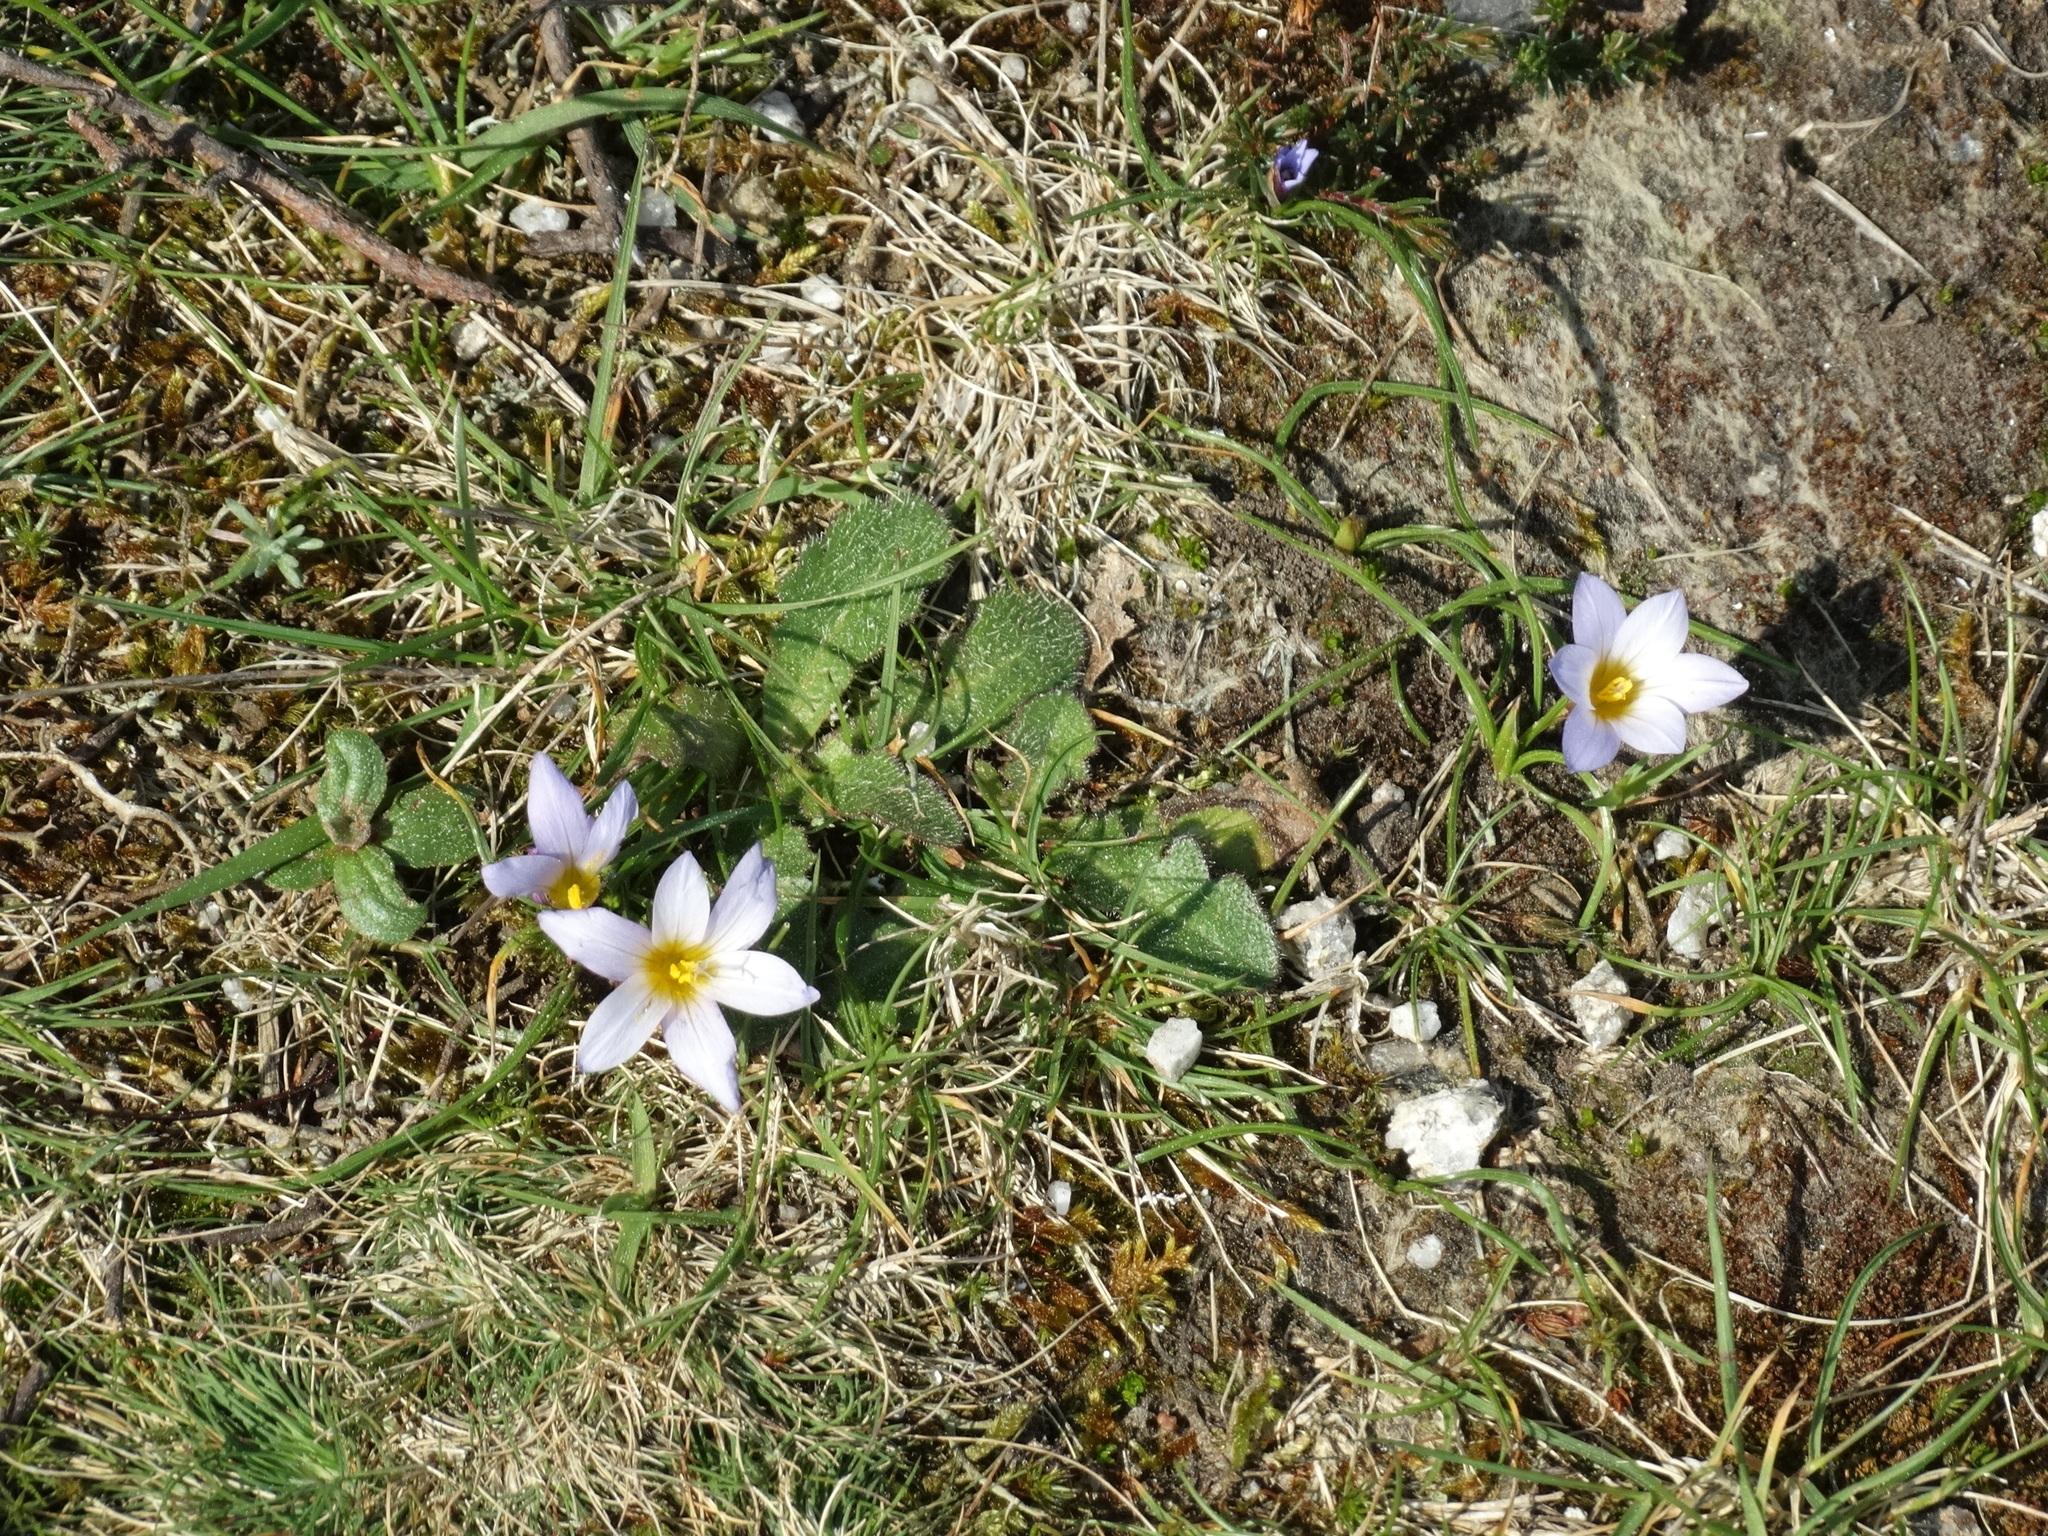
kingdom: Plantae
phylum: Tracheophyta
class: Liliopsida
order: Asparagales
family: Iridaceae
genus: Romulea
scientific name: Romulea bulbocodium
